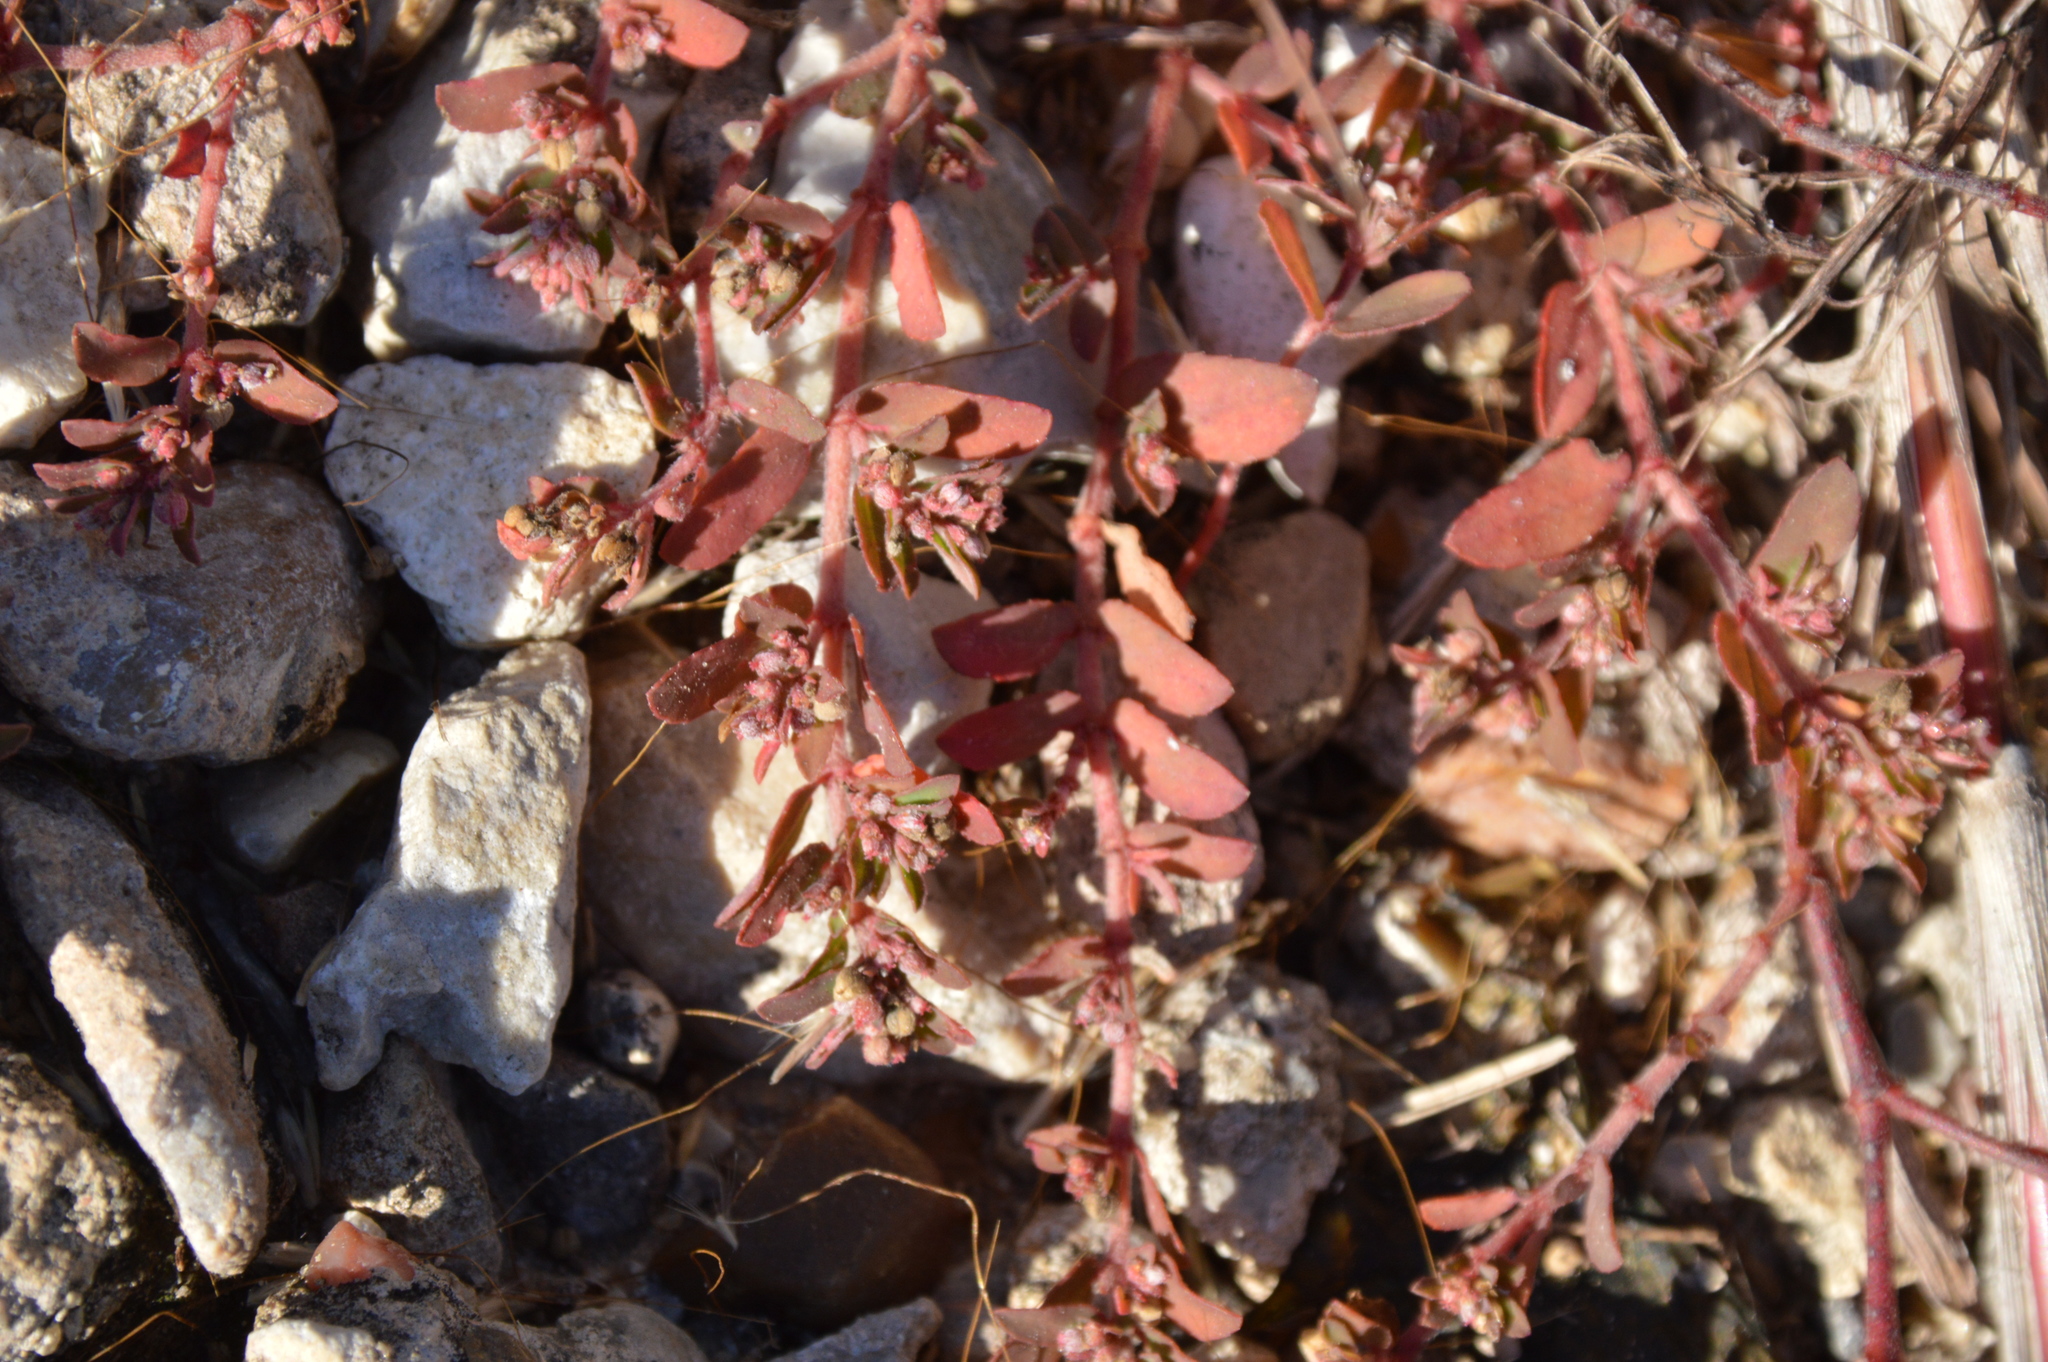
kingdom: Plantae
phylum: Tracheophyta
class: Magnoliopsida
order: Malpighiales
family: Euphorbiaceae
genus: Euphorbia
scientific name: Euphorbia maculata
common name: Spotted spurge
